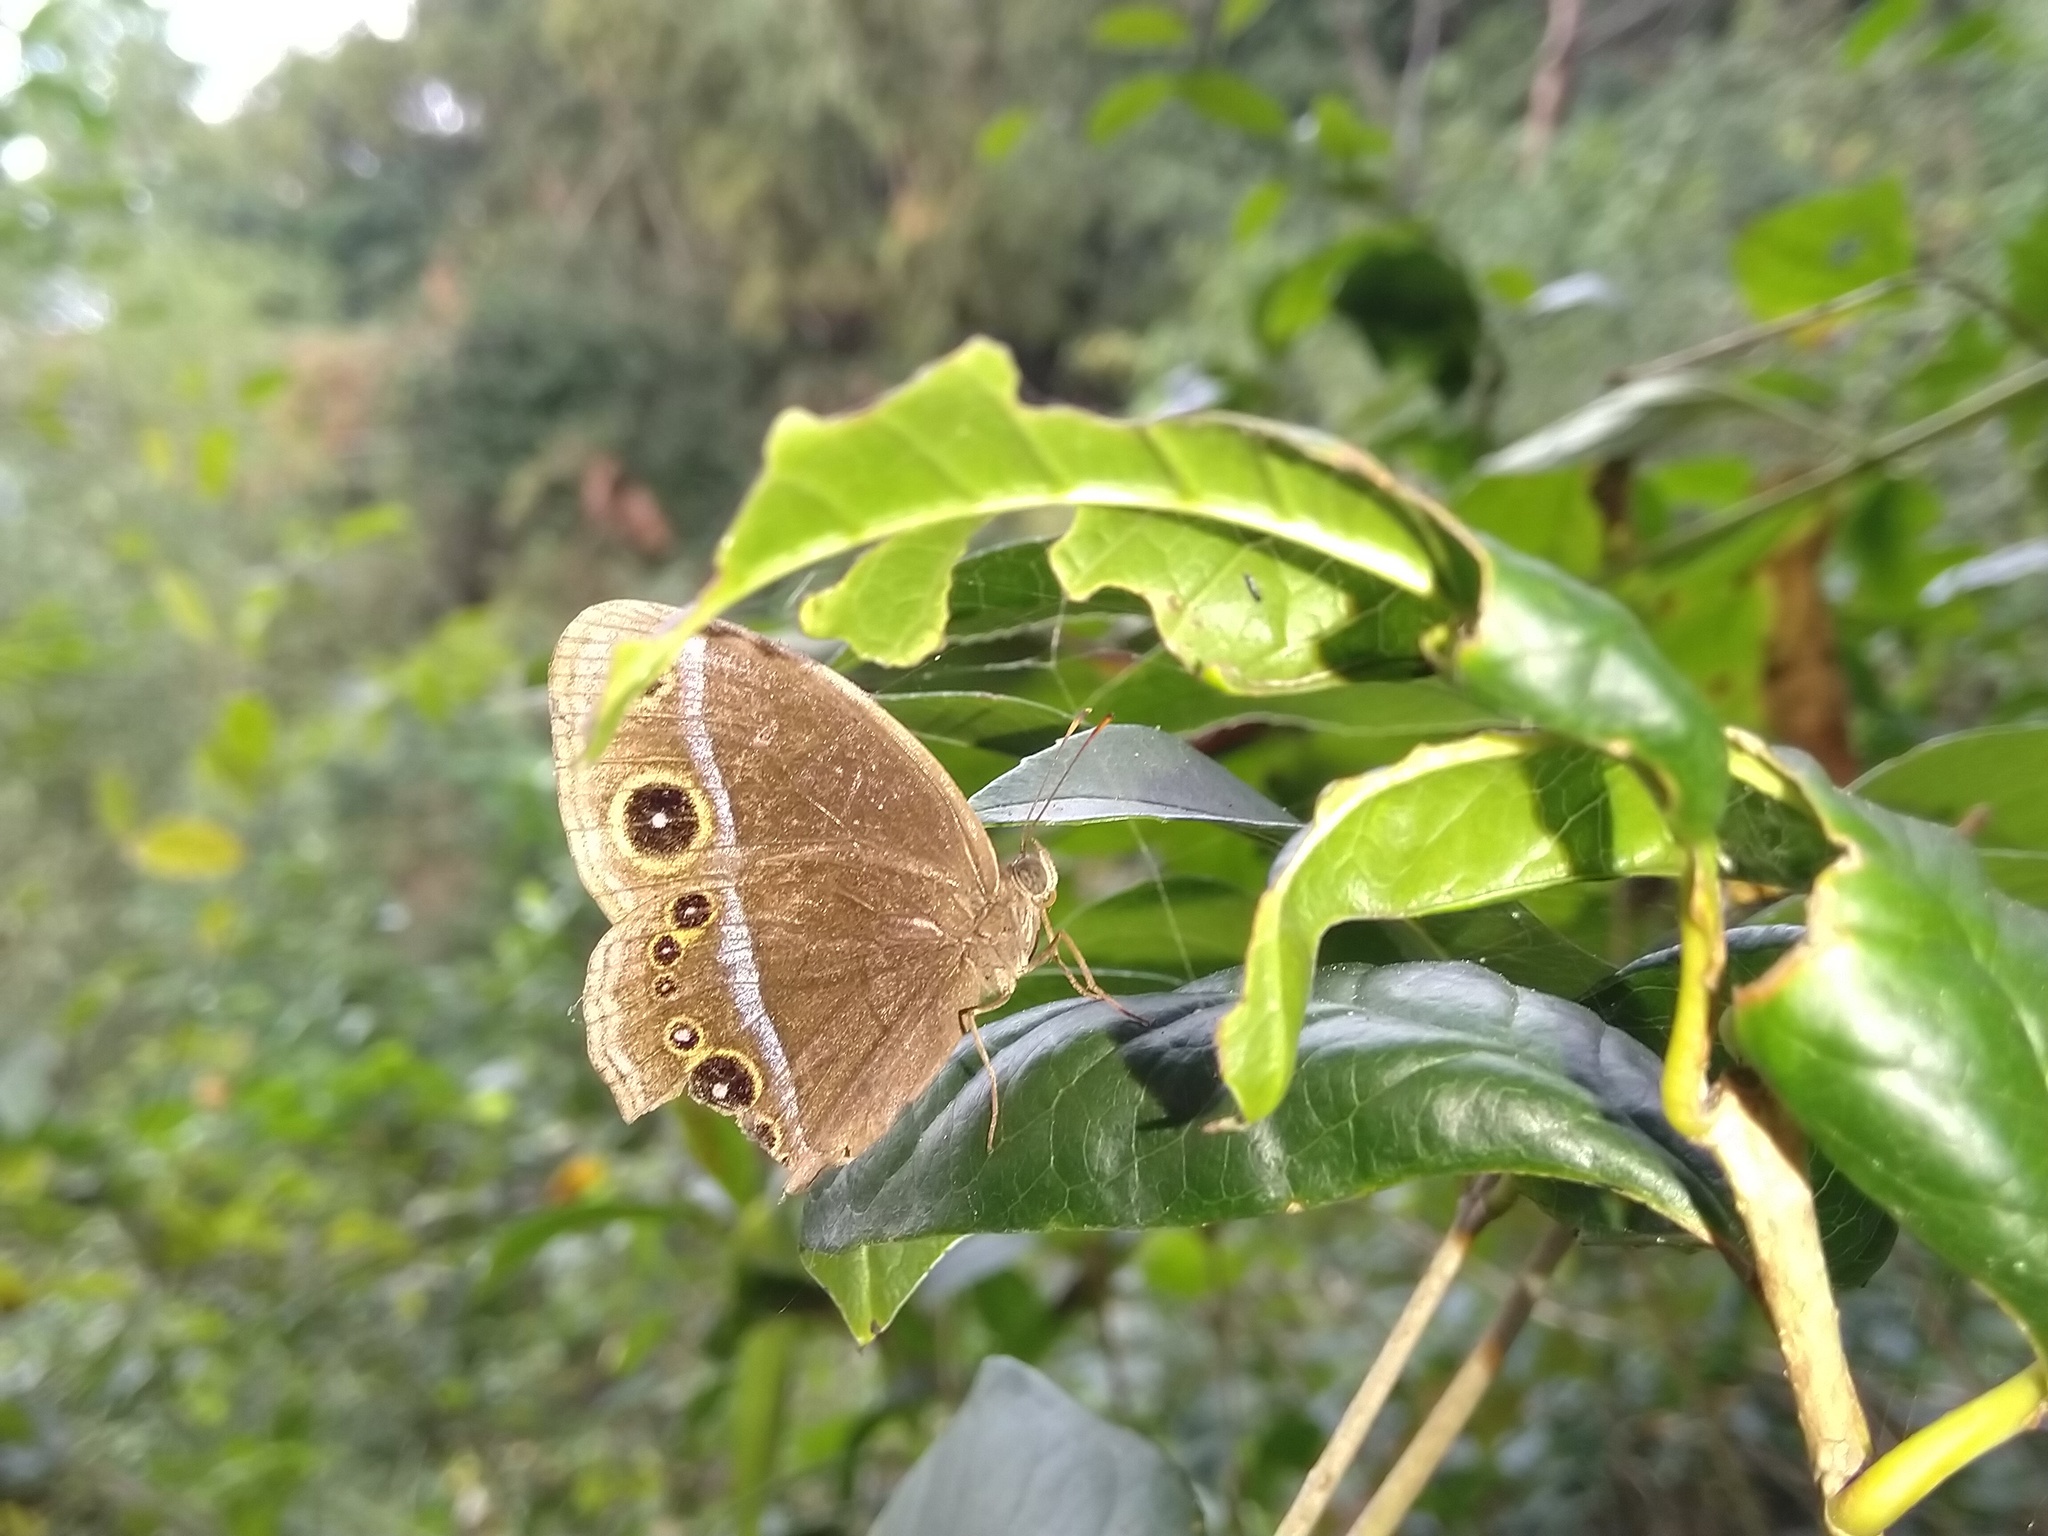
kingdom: Animalia
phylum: Arthropoda
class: Insecta
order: Lepidoptera
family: Nymphalidae
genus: Mycalesis
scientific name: Mycalesis francisca
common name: Lilacine bushbrown
